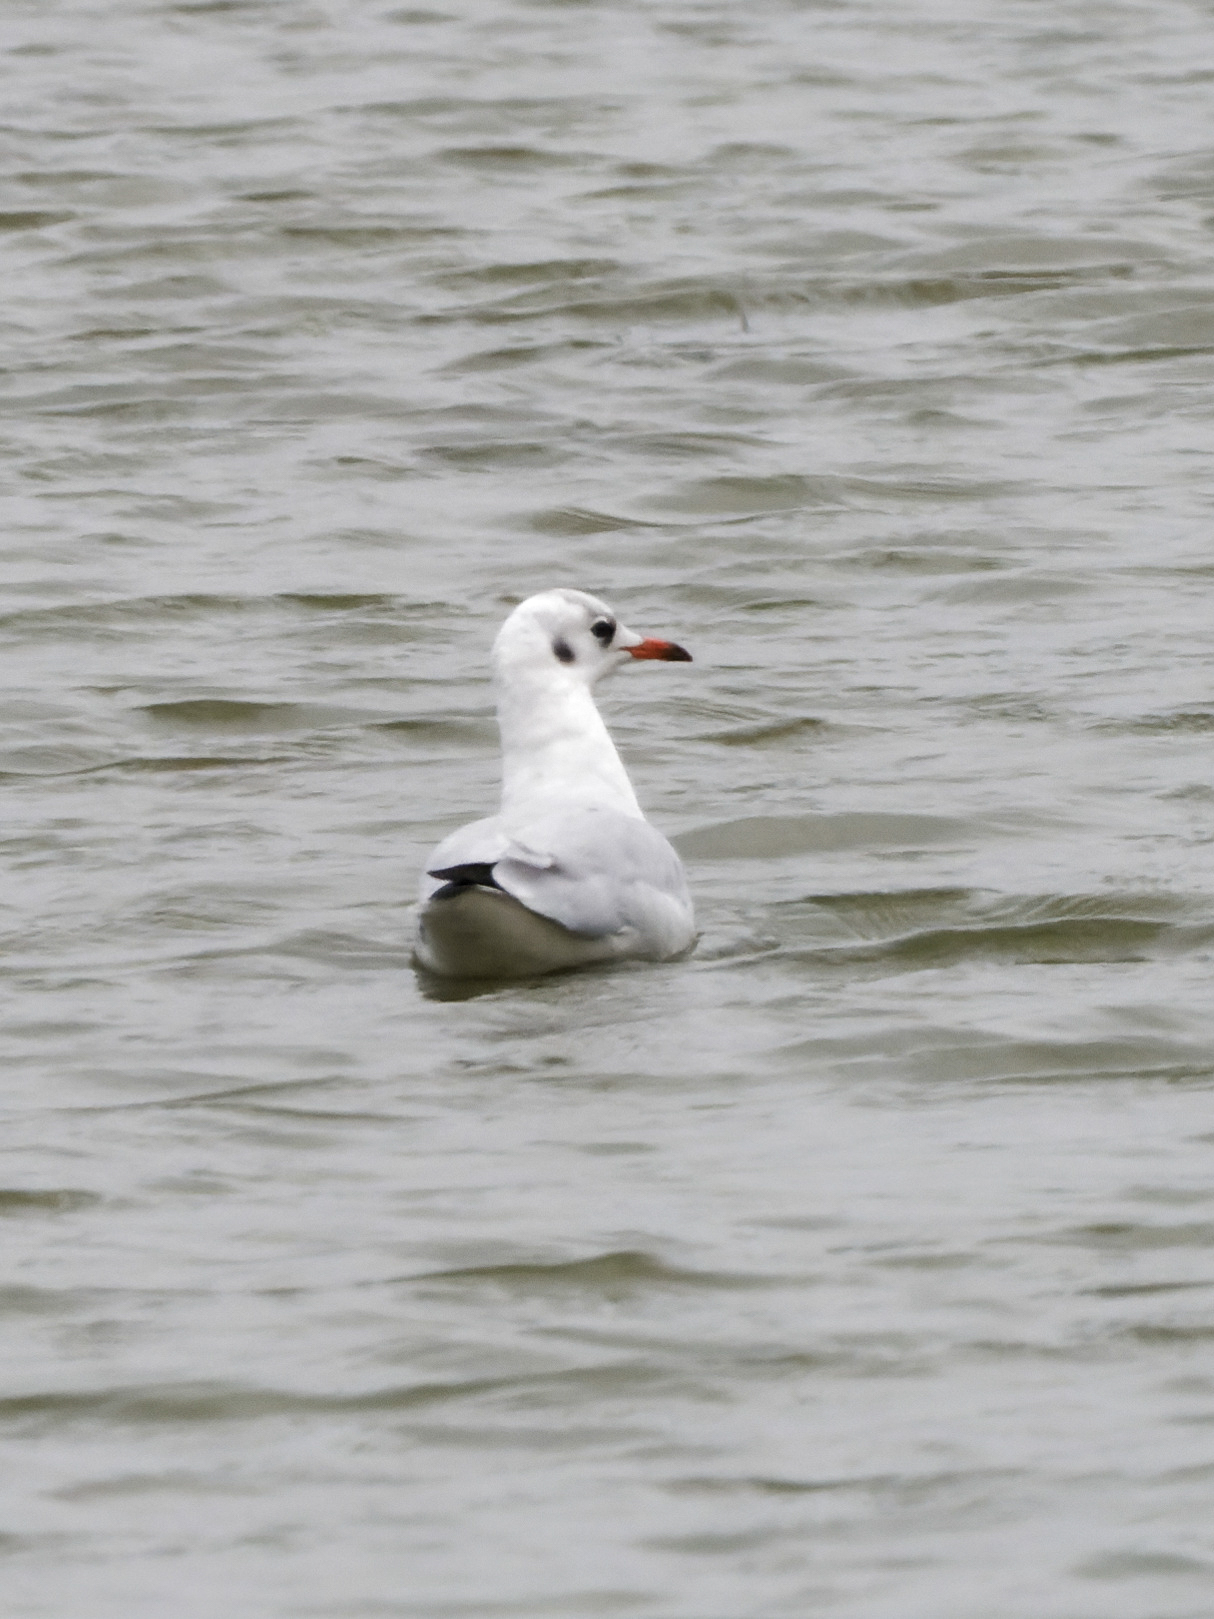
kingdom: Animalia
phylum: Chordata
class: Aves
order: Charadriiformes
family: Laridae
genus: Chroicocephalus
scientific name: Chroicocephalus ridibundus
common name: Black-headed gull
